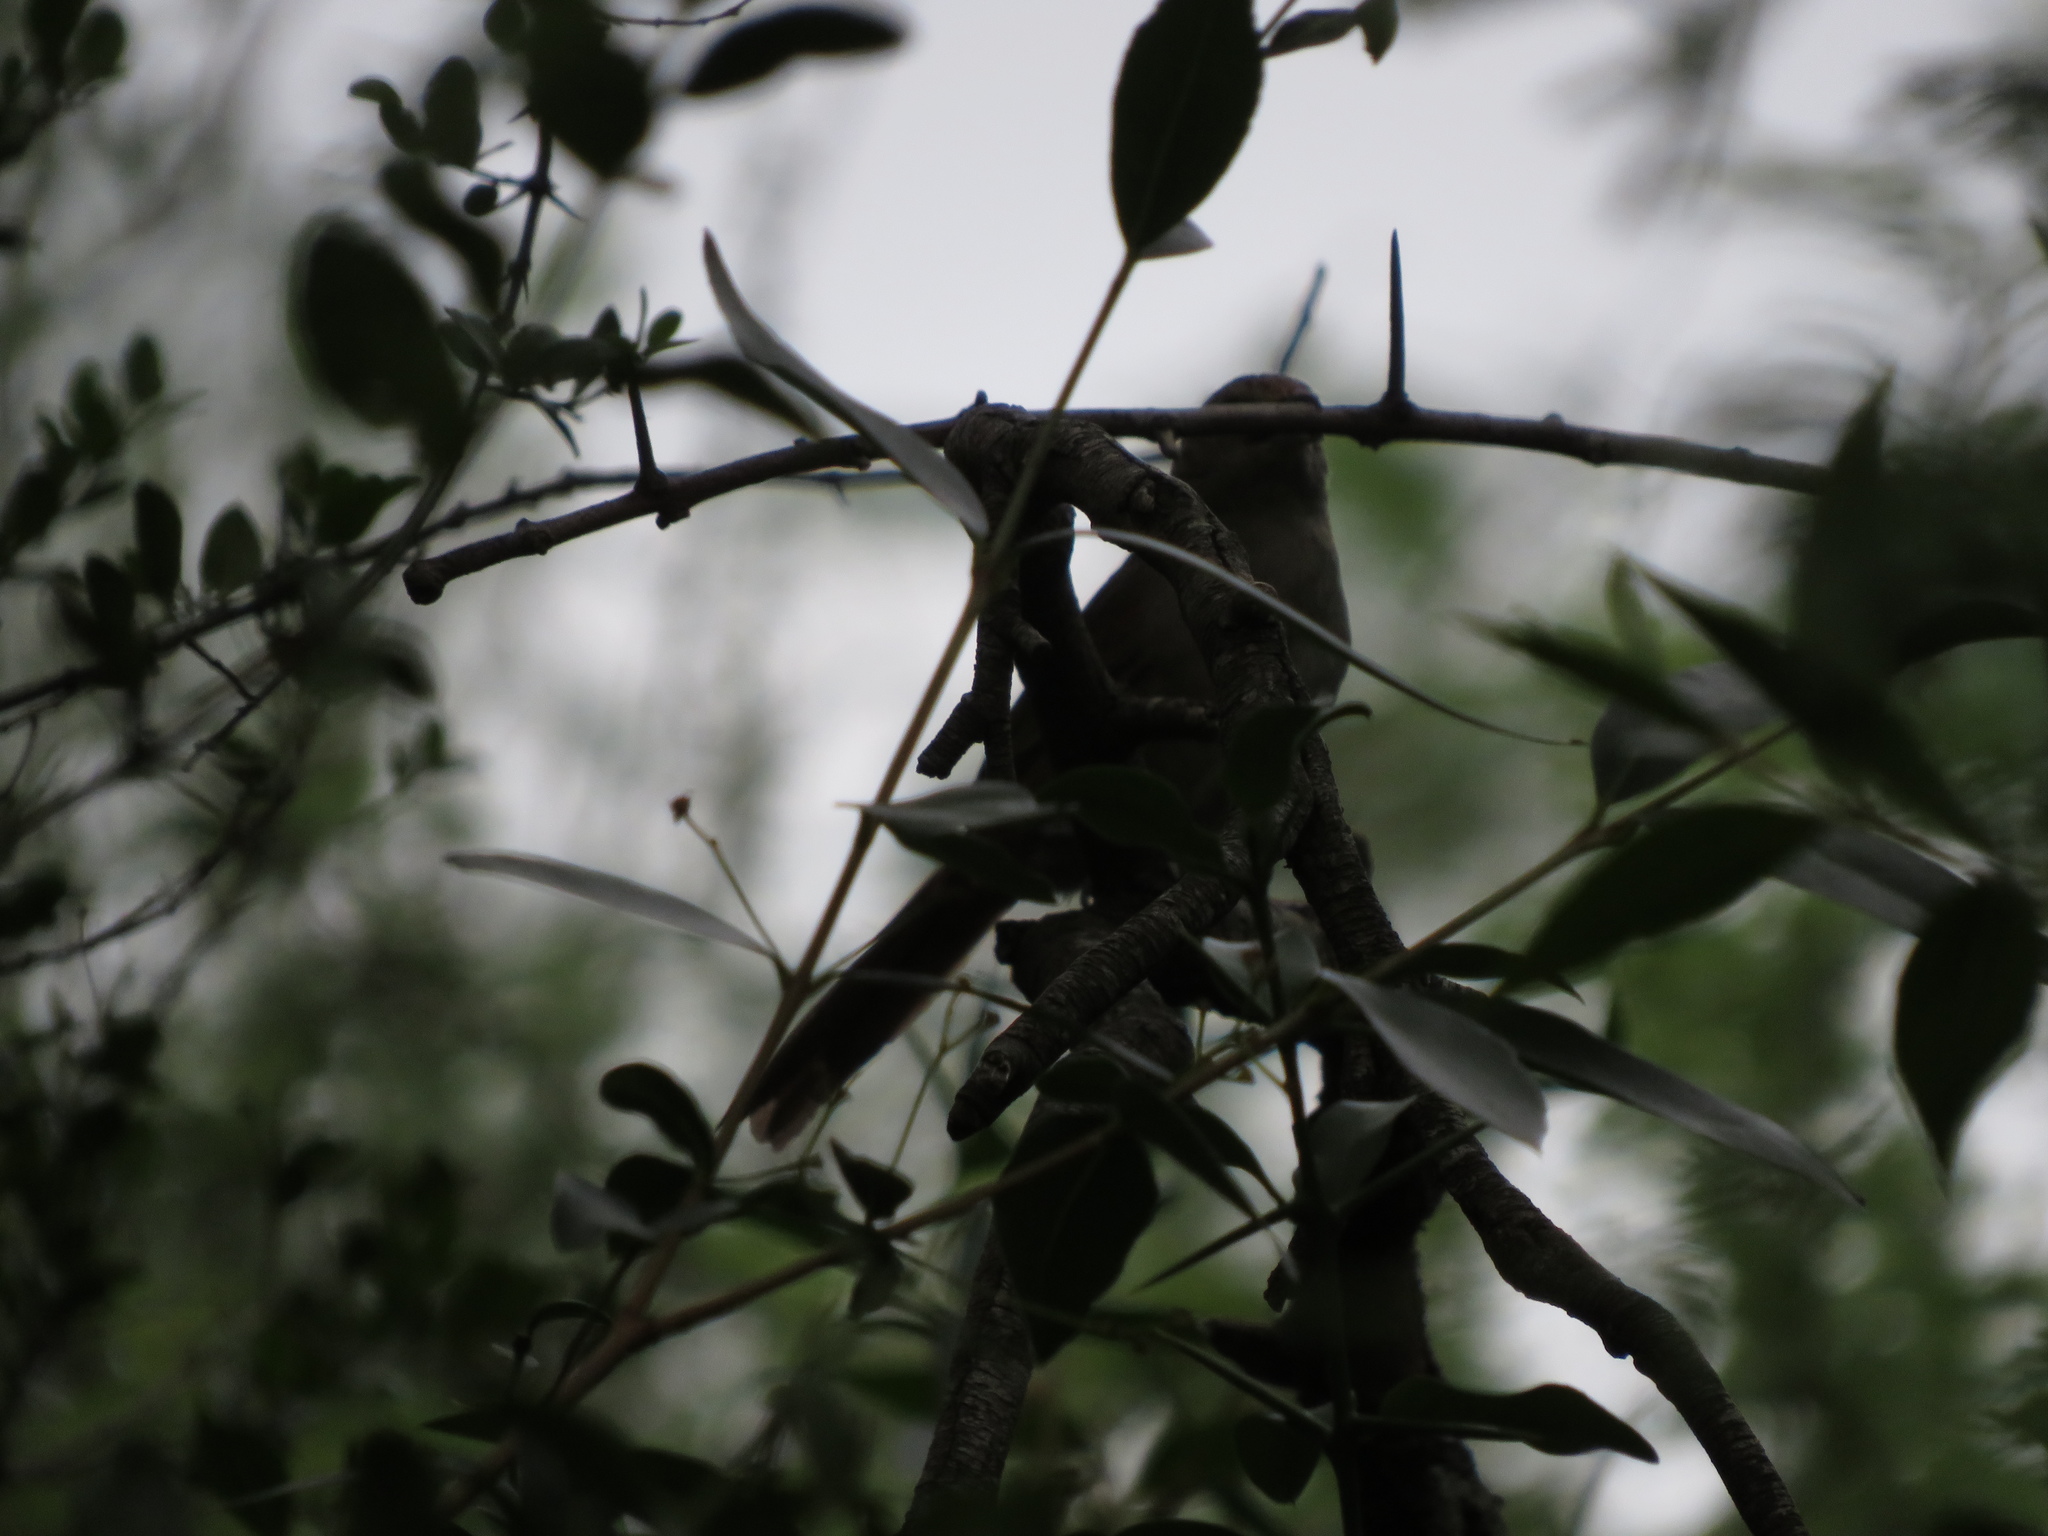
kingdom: Animalia
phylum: Chordata
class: Aves
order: Passeriformes
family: Furnariidae
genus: Phacellodomus
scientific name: Phacellodomus sibilatrix
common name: Little thornbird
